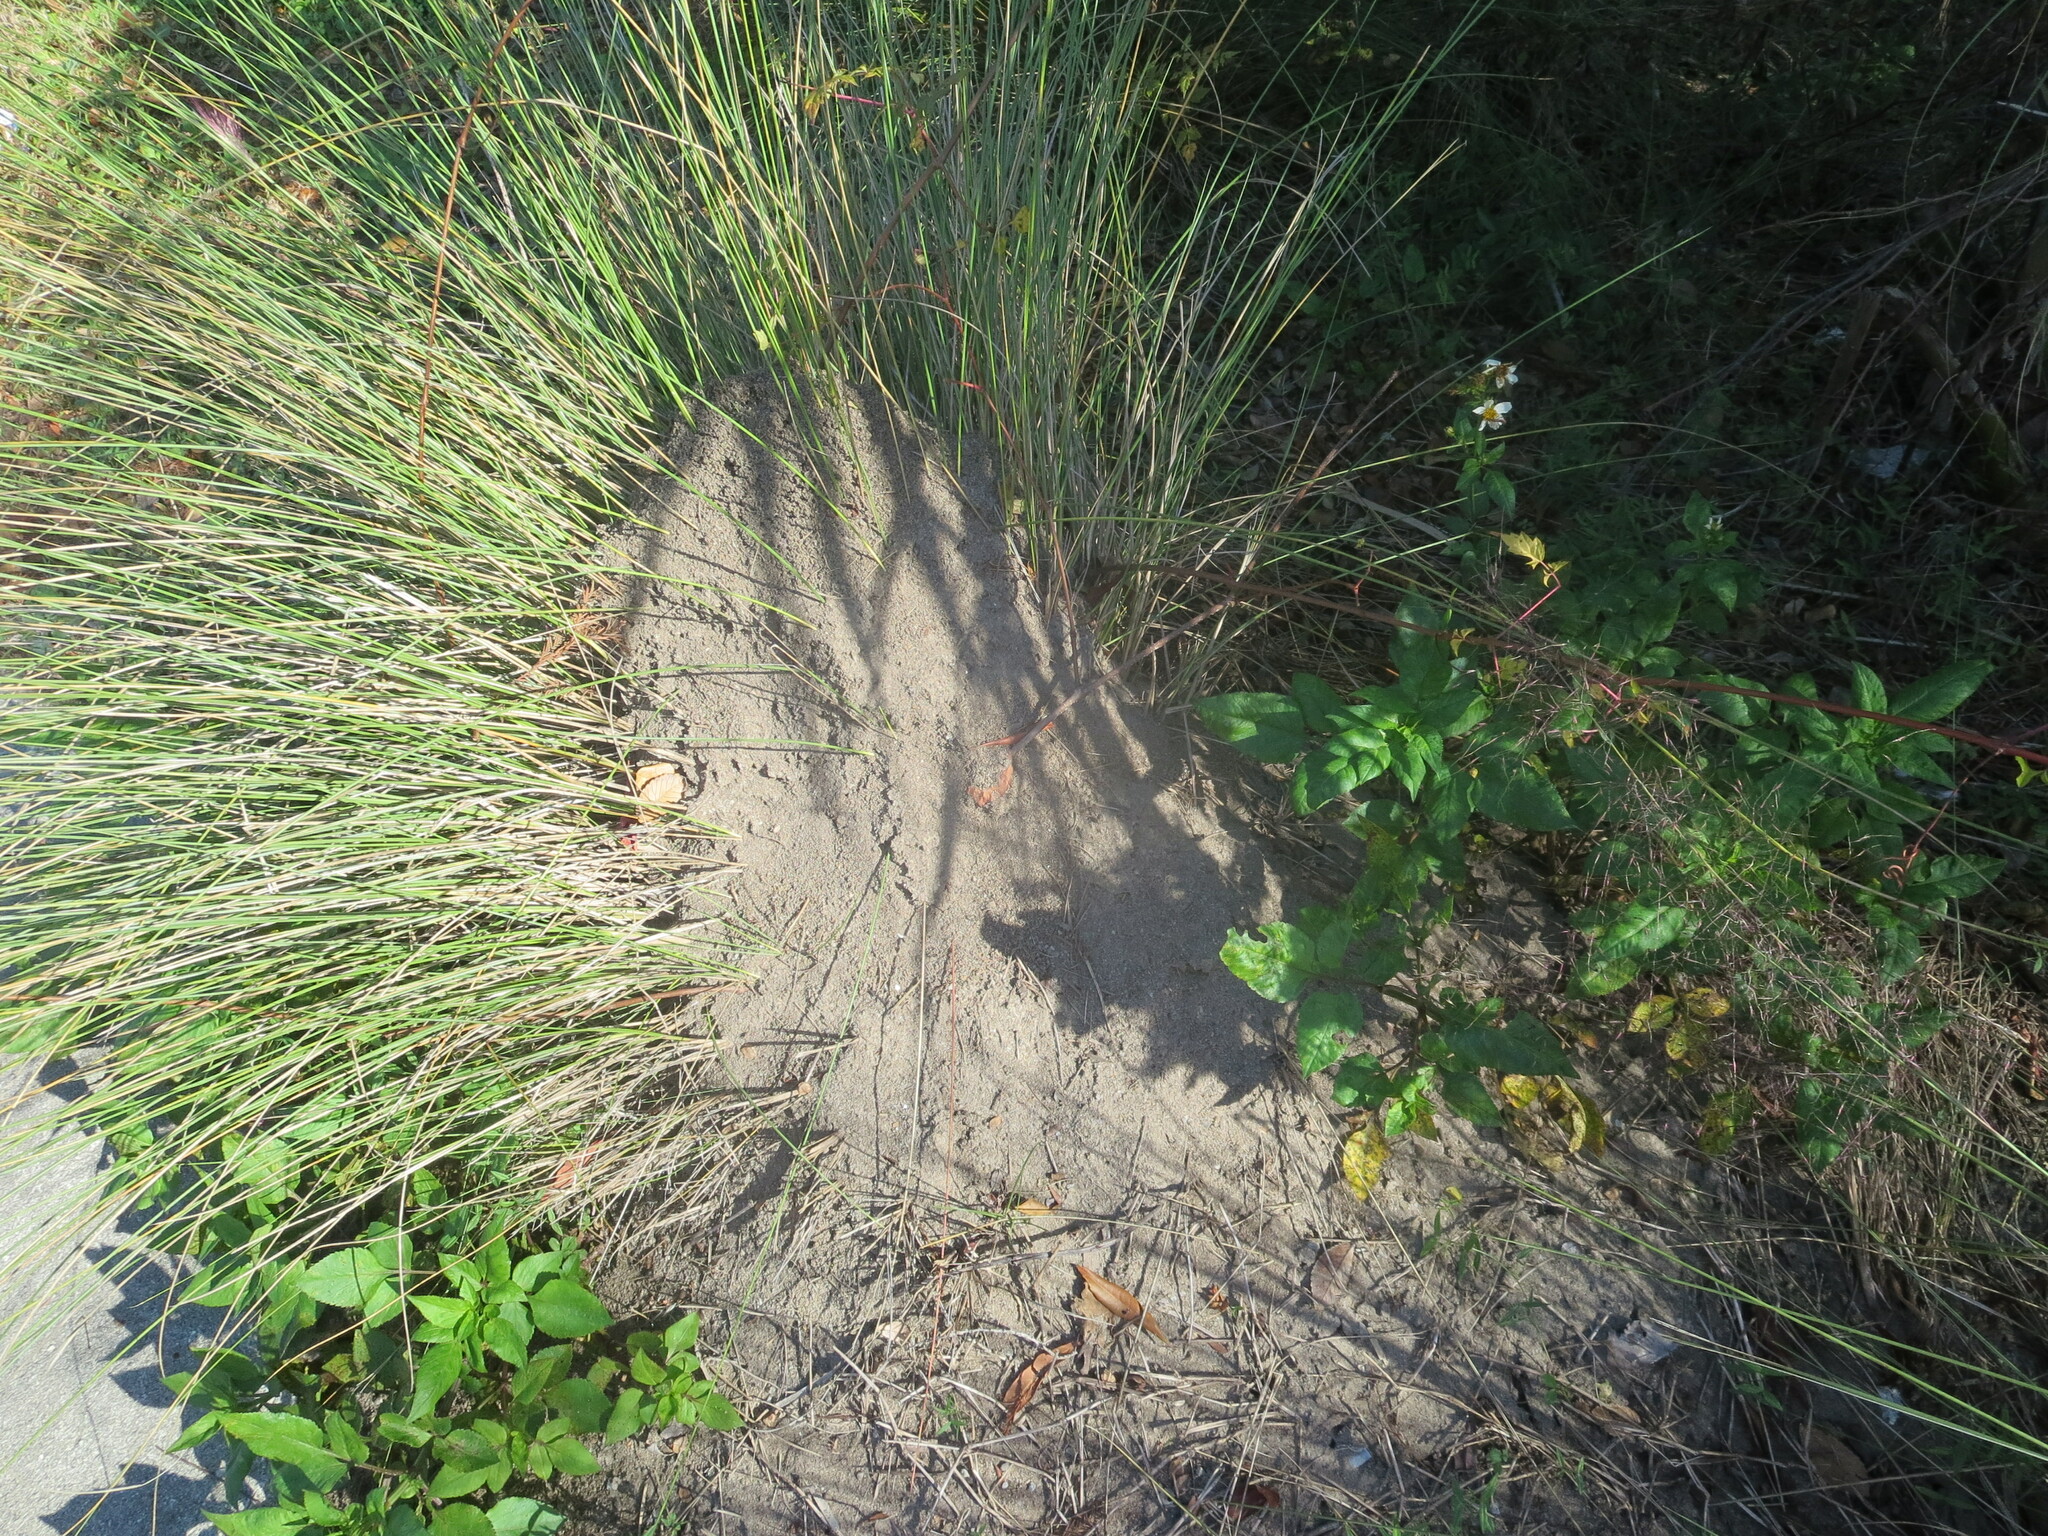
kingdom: Animalia
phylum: Arthropoda
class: Insecta
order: Hymenoptera
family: Formicidae
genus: Solenopsis
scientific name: Solenopsis invicta
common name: Red imported fire ant
